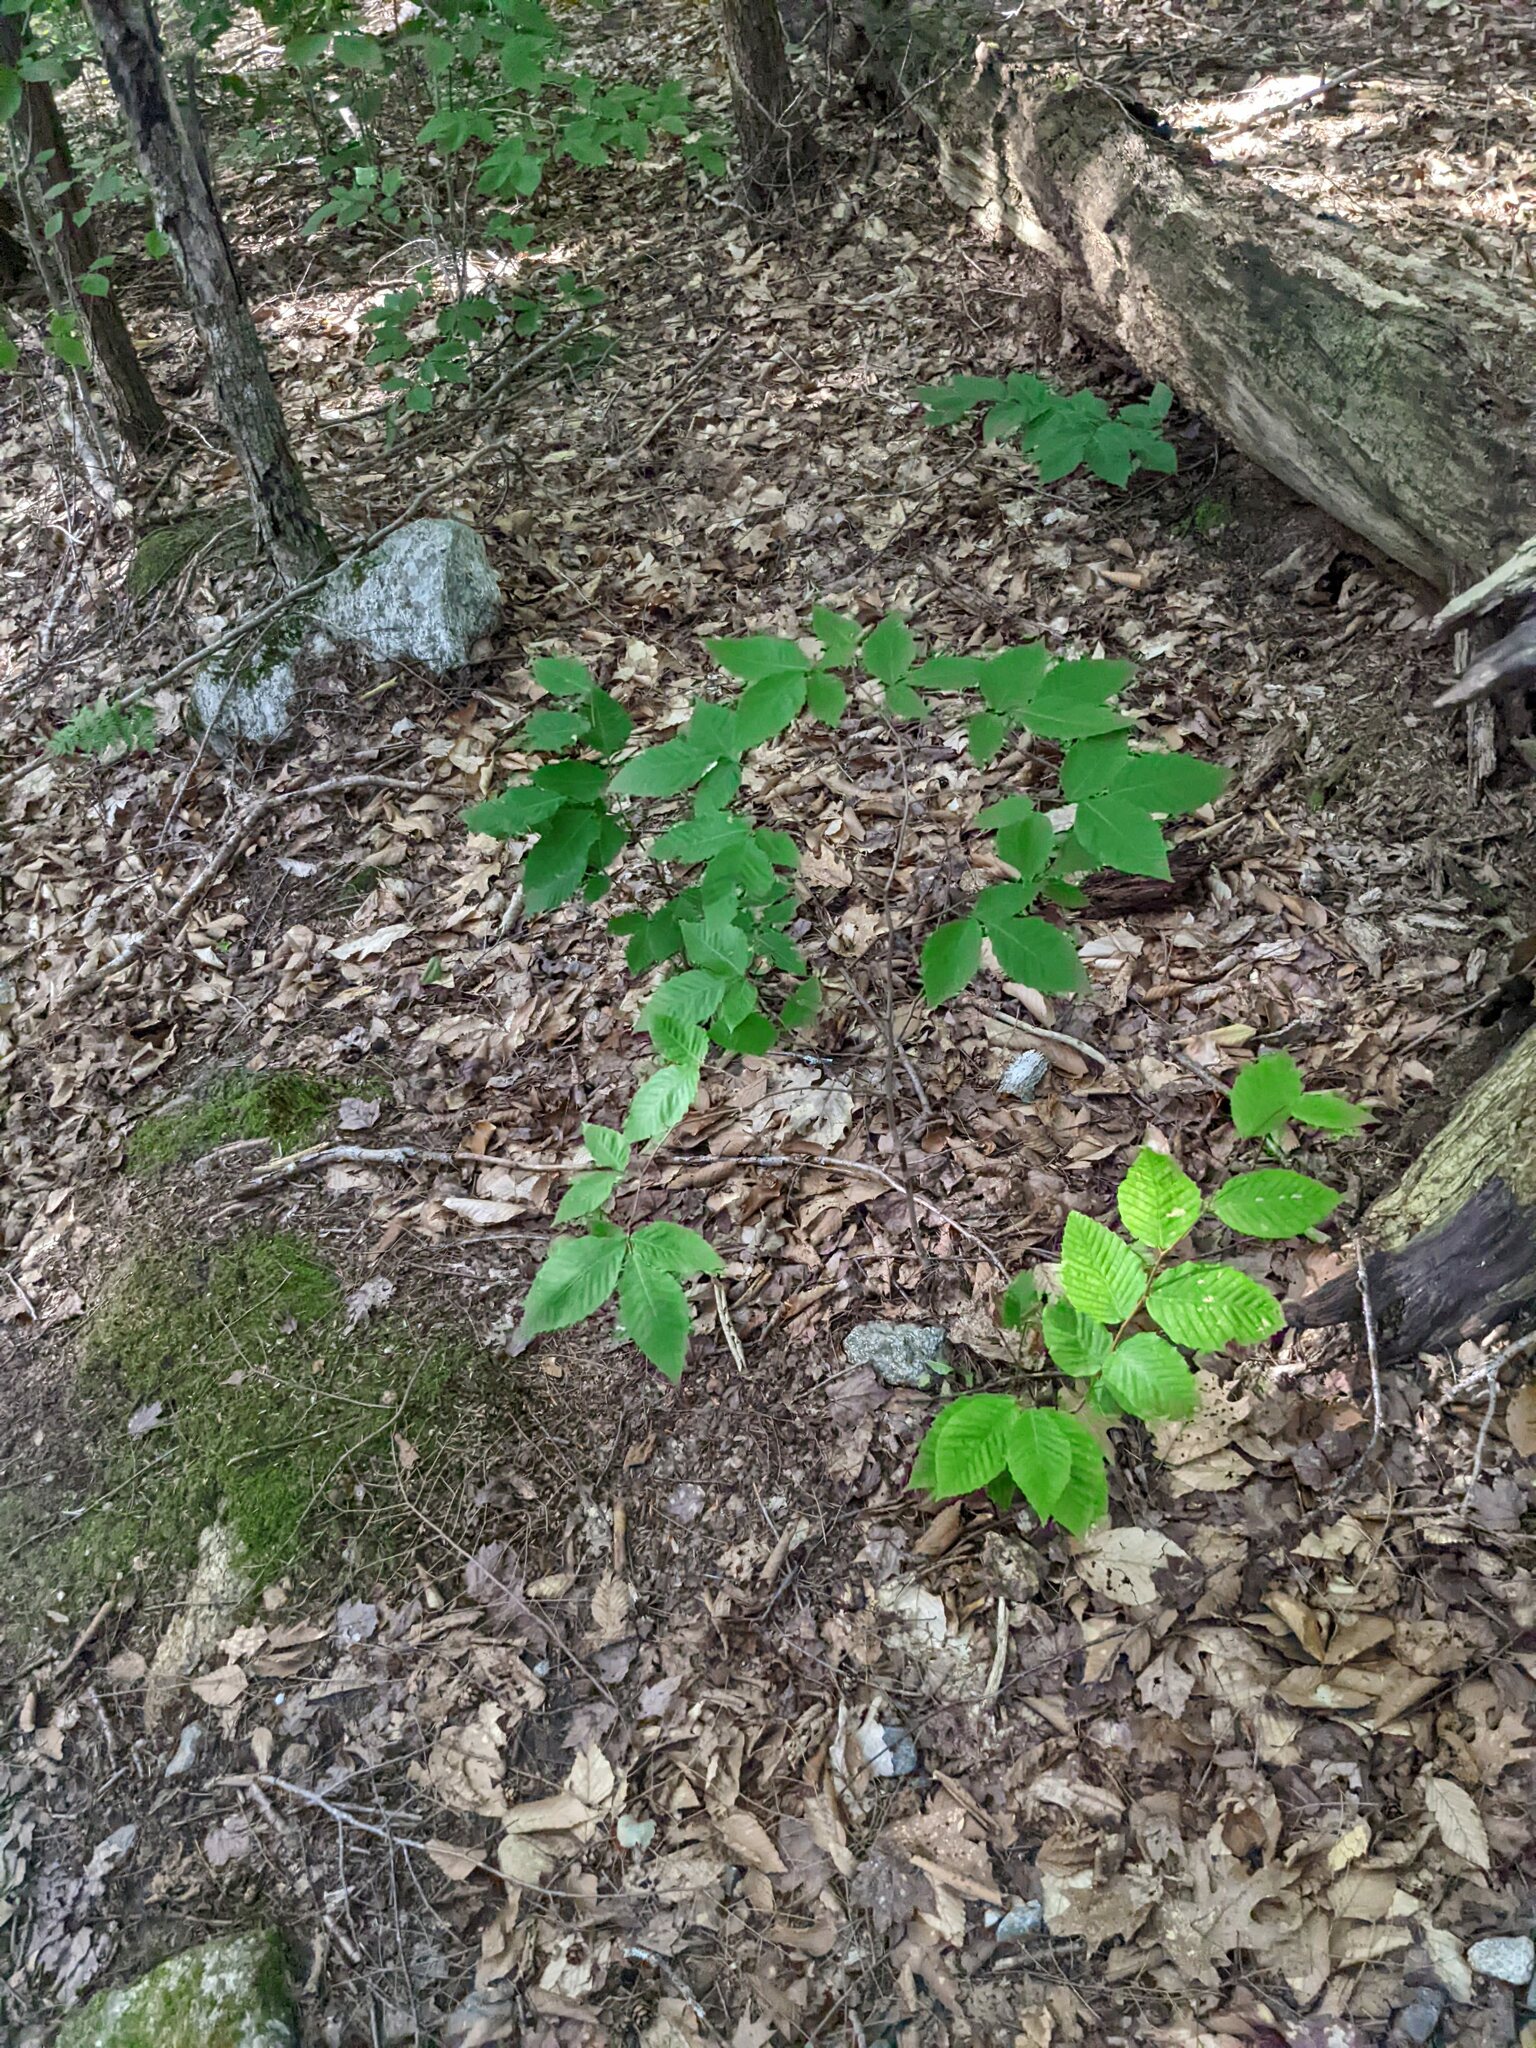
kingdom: Plantae
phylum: Tracheophyta
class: Magnoliopsida
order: Fagales
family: Fagaceae
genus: Fagus
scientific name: Fagus grandifolia
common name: American beech
